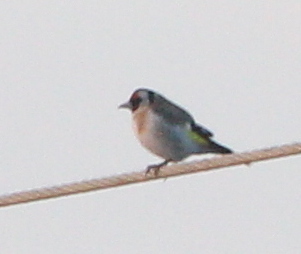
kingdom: Animalia
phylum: Chordata
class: Aves
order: Passeriformes
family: Fringillidae
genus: Carduelis
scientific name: Carduelis carduelis
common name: European goldfinch
